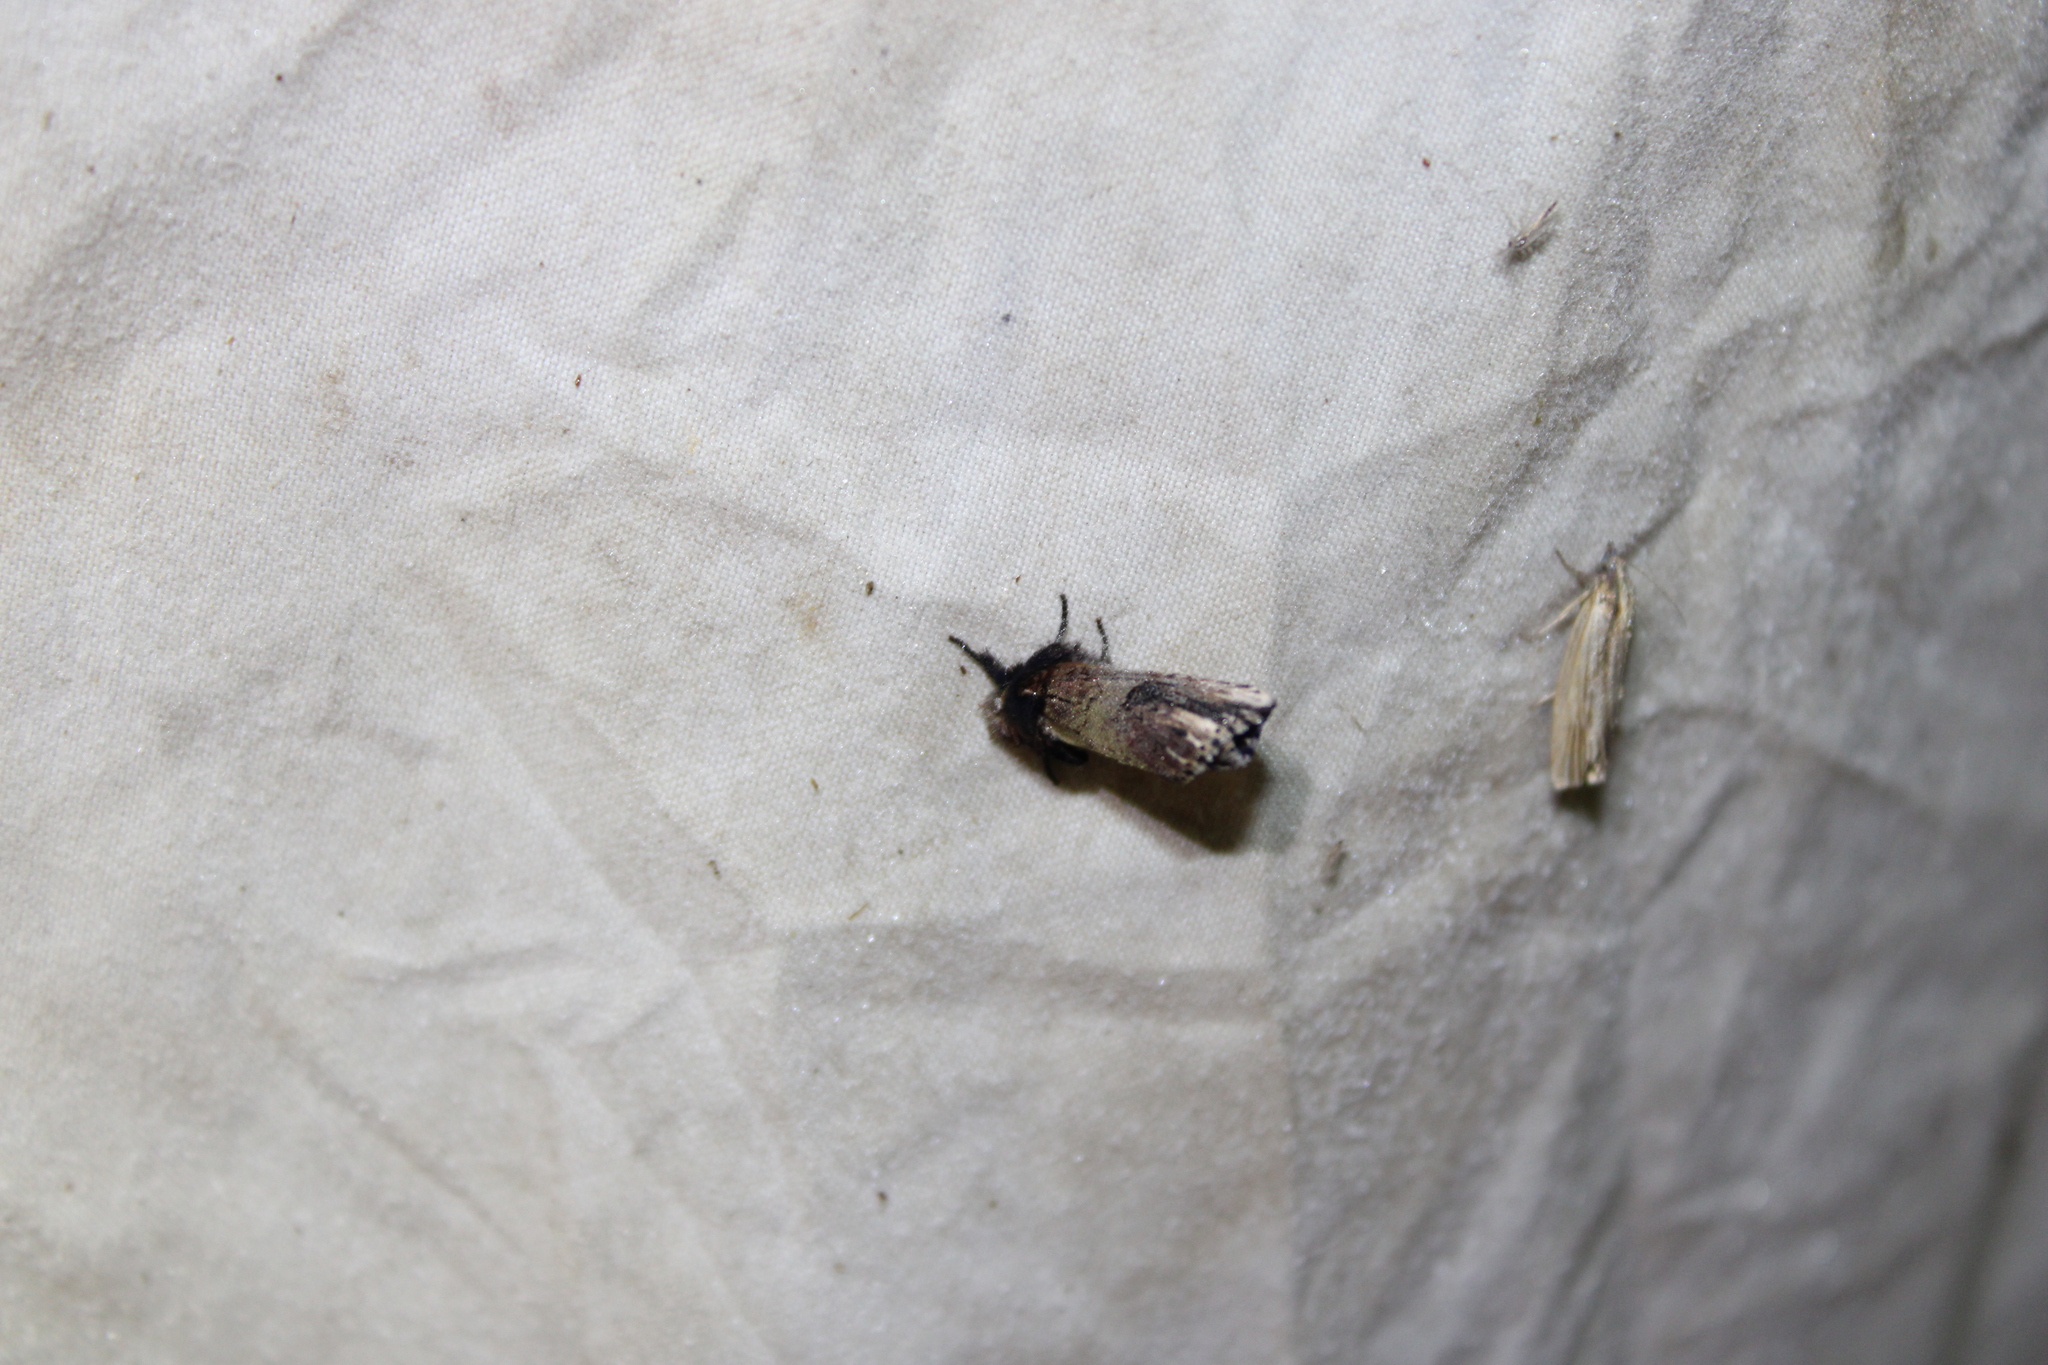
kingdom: Animalia
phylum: Arthropoda
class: Insecta
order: Lepidoptera
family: Notodontidae
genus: Schizura
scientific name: Schizura badia
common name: Chestnut schizura
